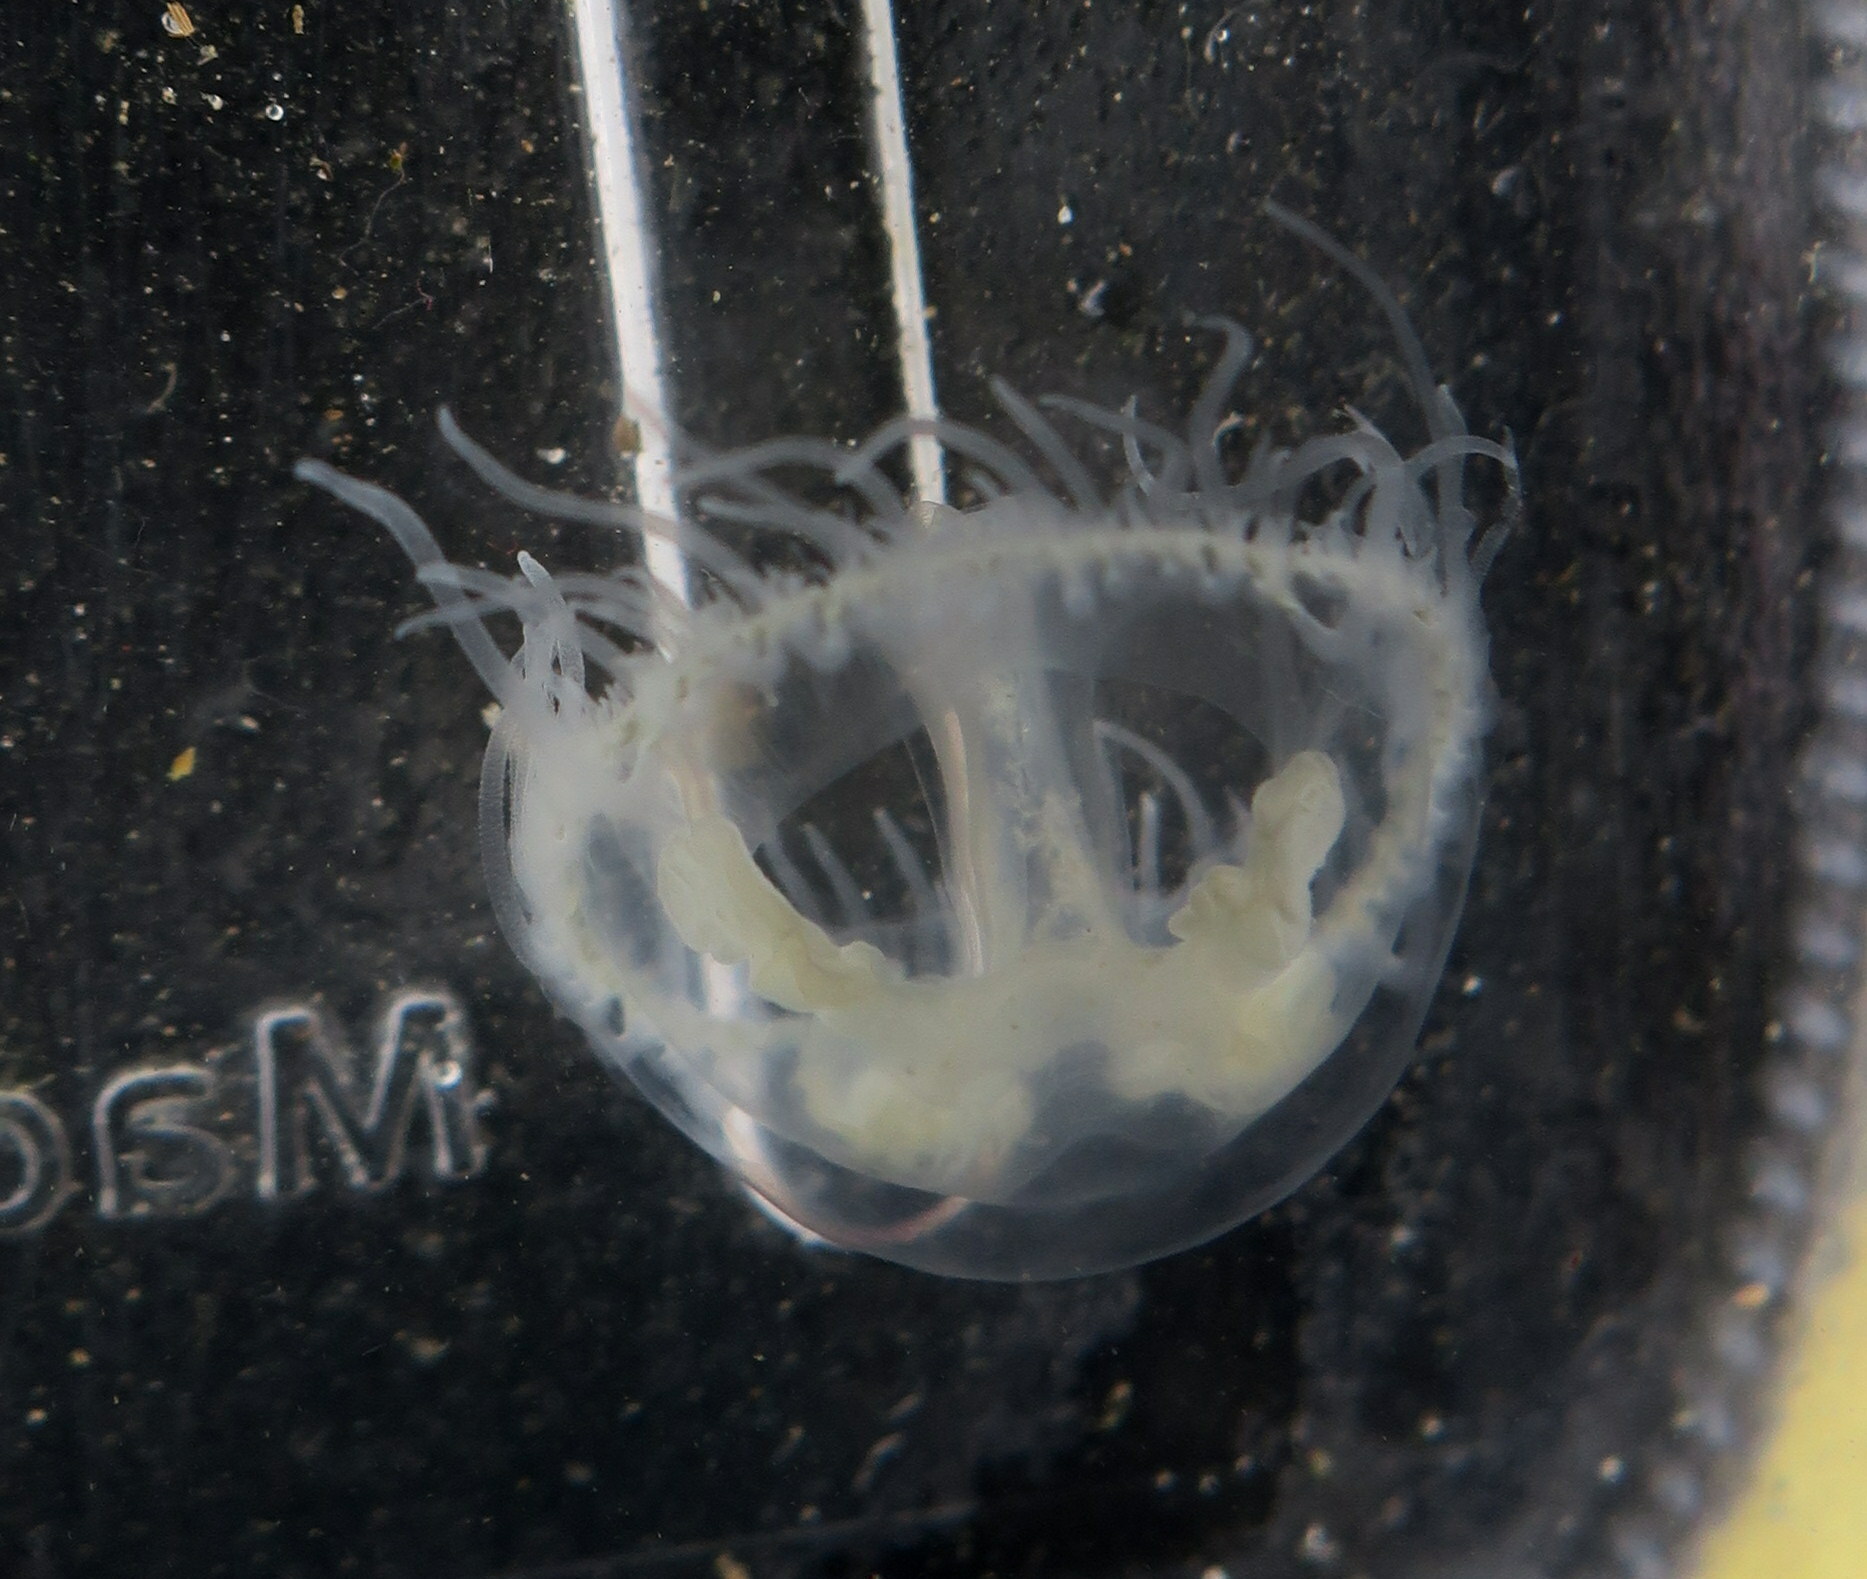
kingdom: Animalia
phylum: Cnidaria
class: Hydrozoa
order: Limnomedusae
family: Olindiidae
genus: Craspedacusta
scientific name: Craspedacusta sowerbii
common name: Freshwater jellyfish
